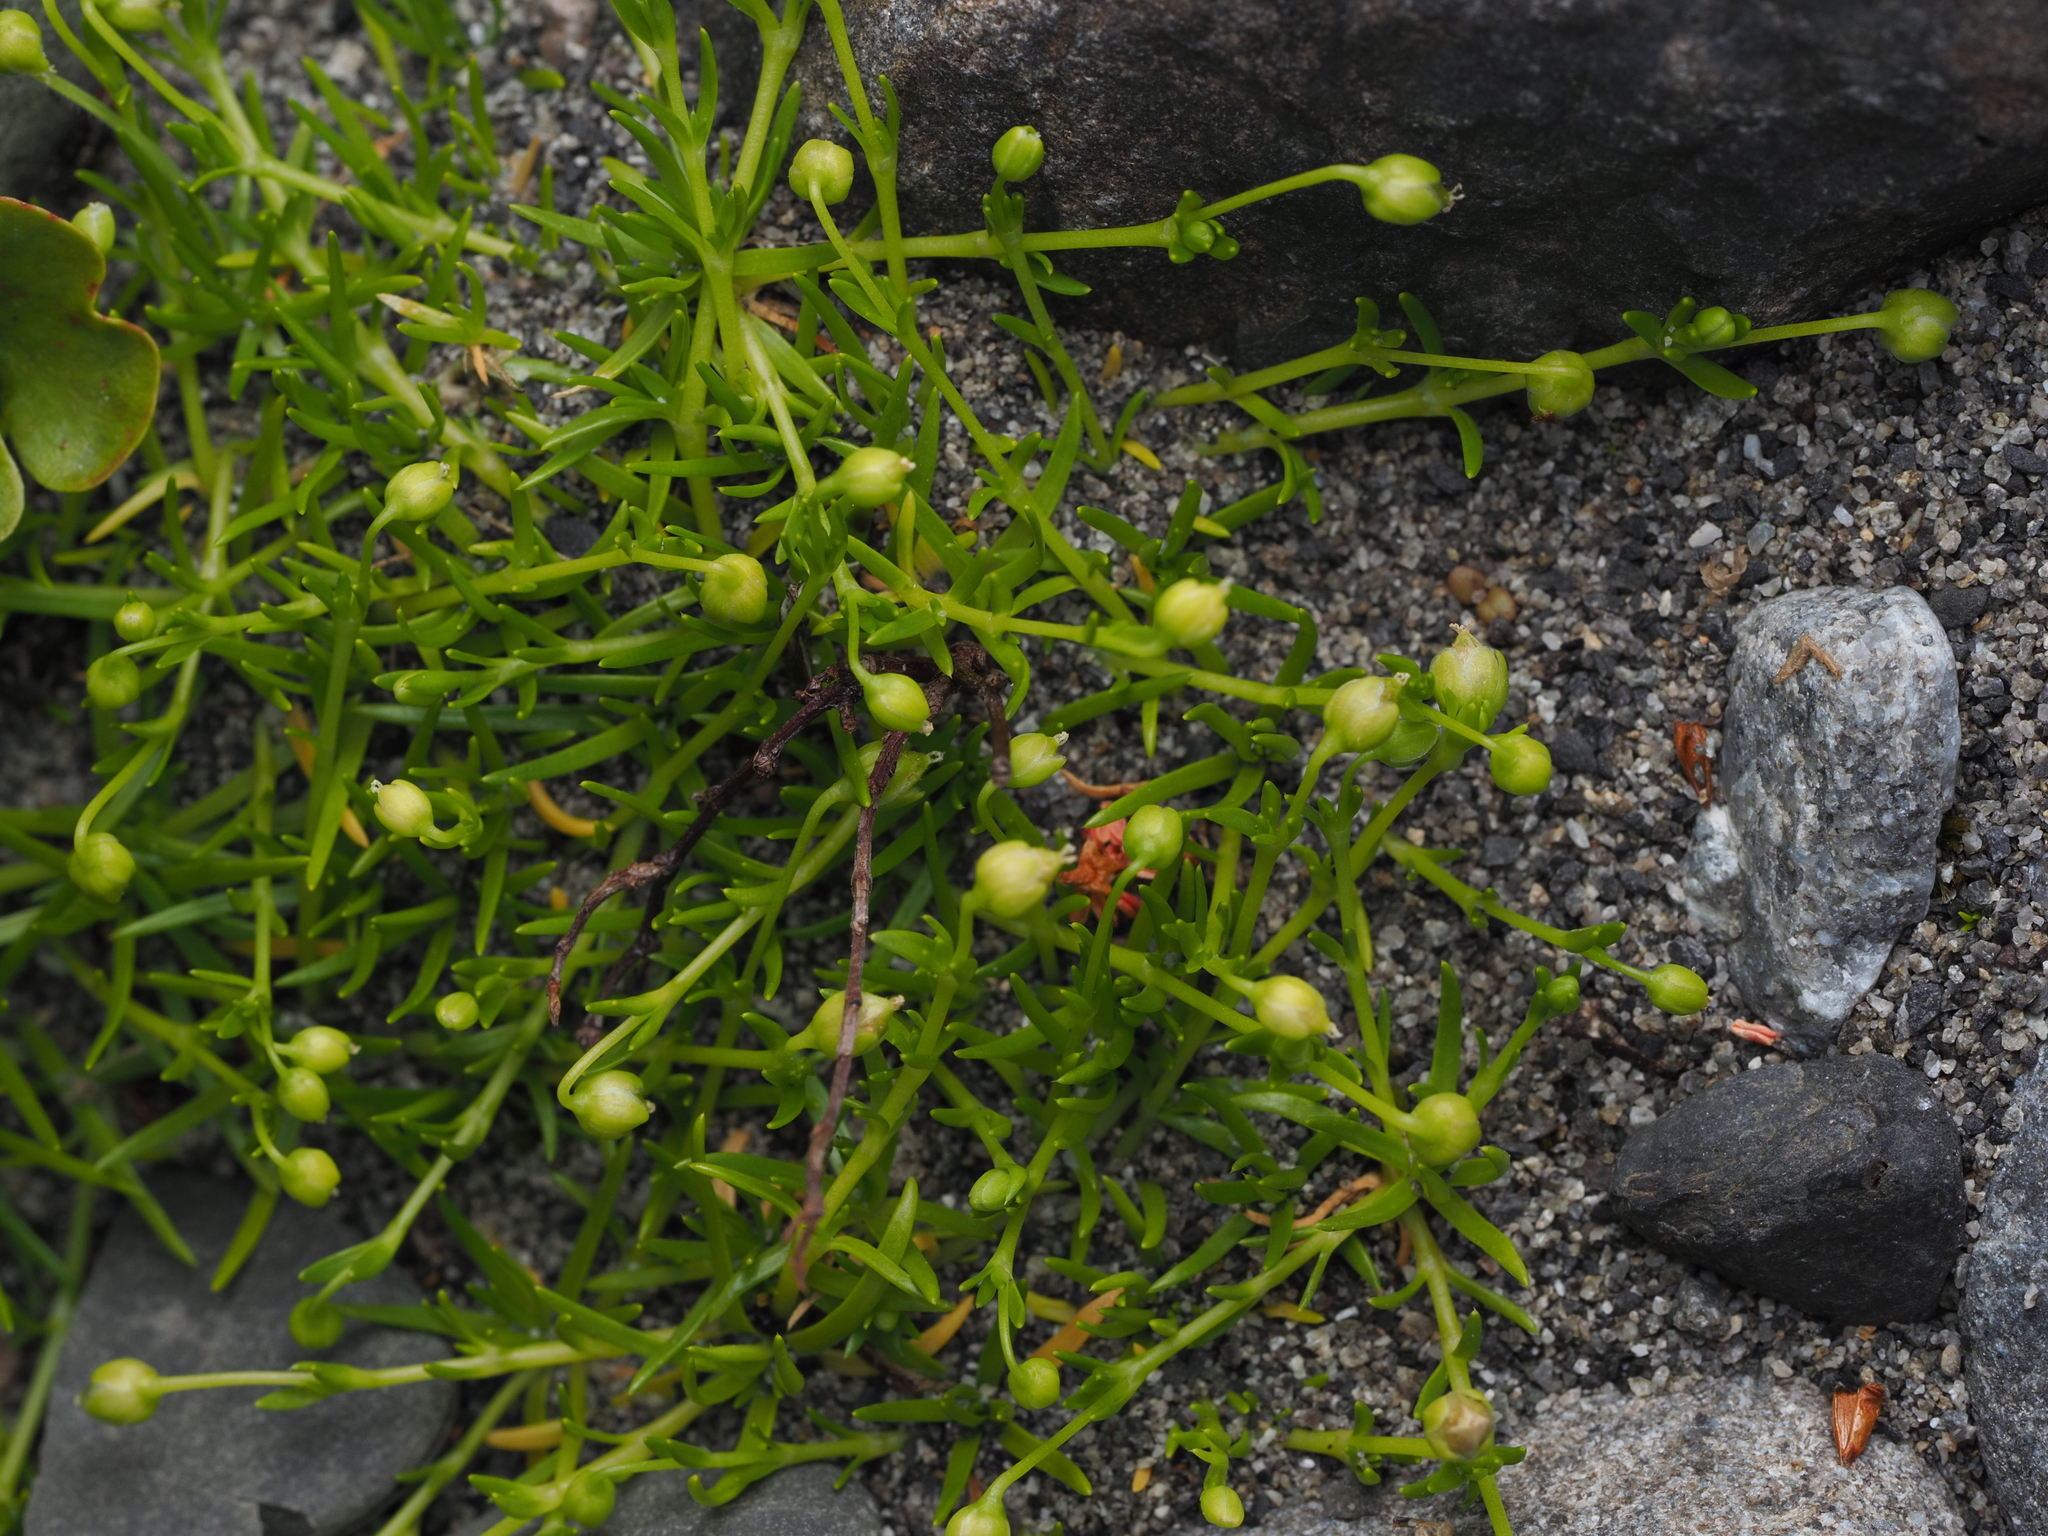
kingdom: Plantae
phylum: Tracheophyta
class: Magnoliopsida
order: Caryophyllales
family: Caryophyllaceae
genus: Sagina
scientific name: Sagina procumbens
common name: Procumbent pearlwort
